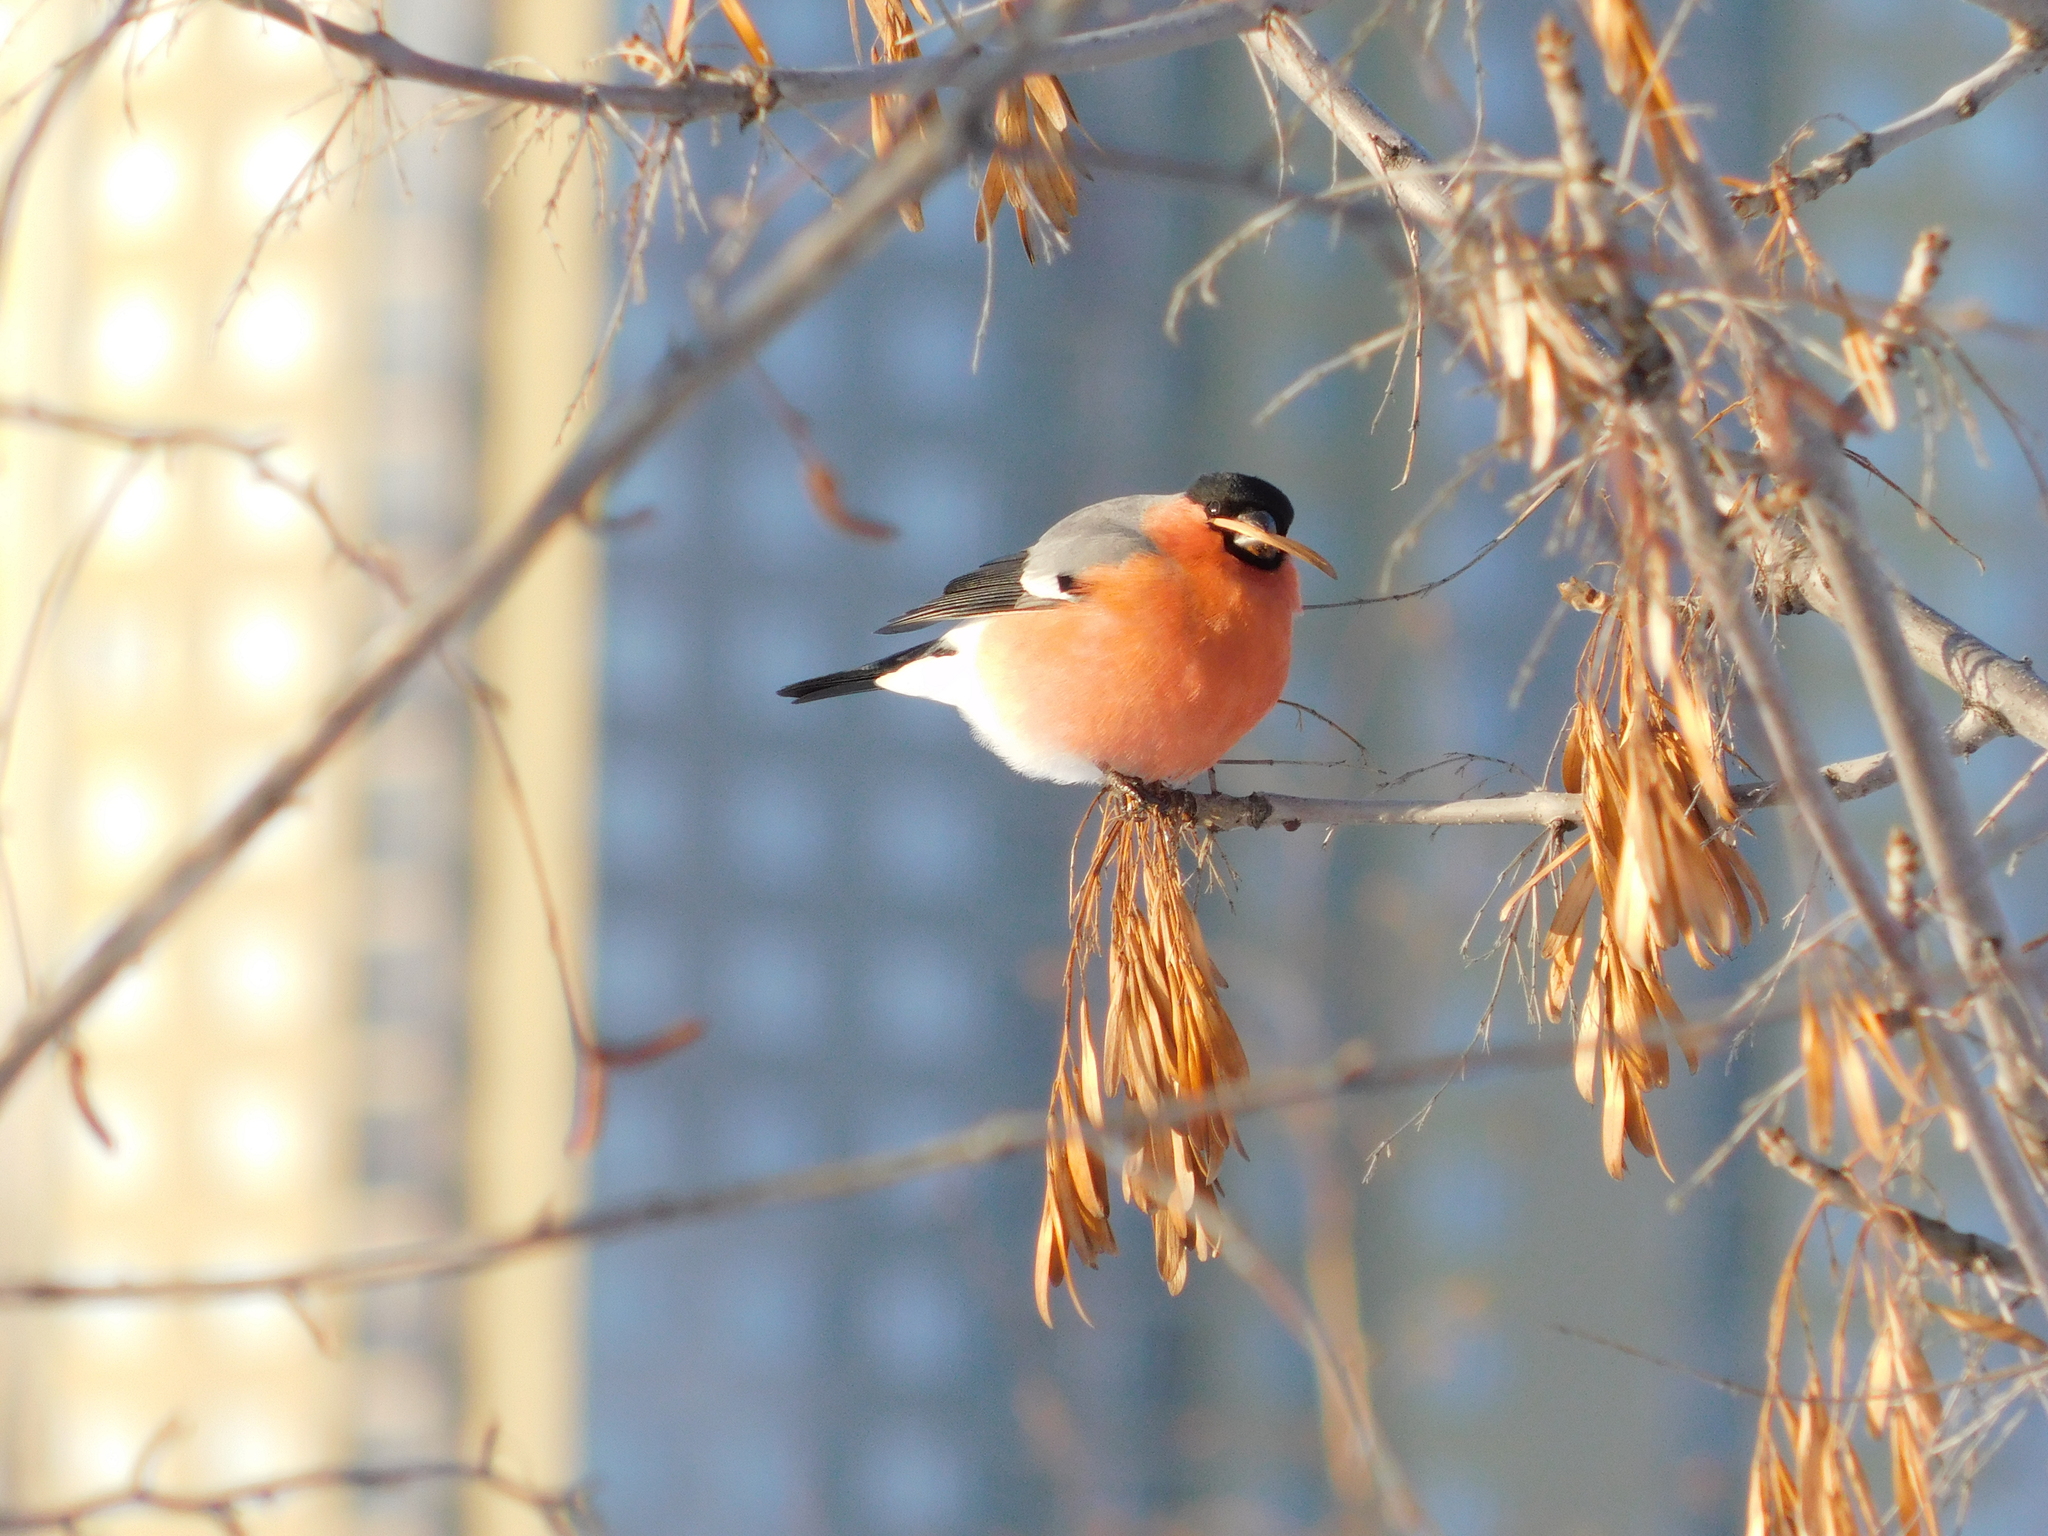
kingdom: Animalia
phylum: Chordata
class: Aves
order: Passeriformes
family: Fringillidae
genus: Pyrrhula
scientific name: Pyrrhula pyrrhula
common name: Eurasian bullfinch
